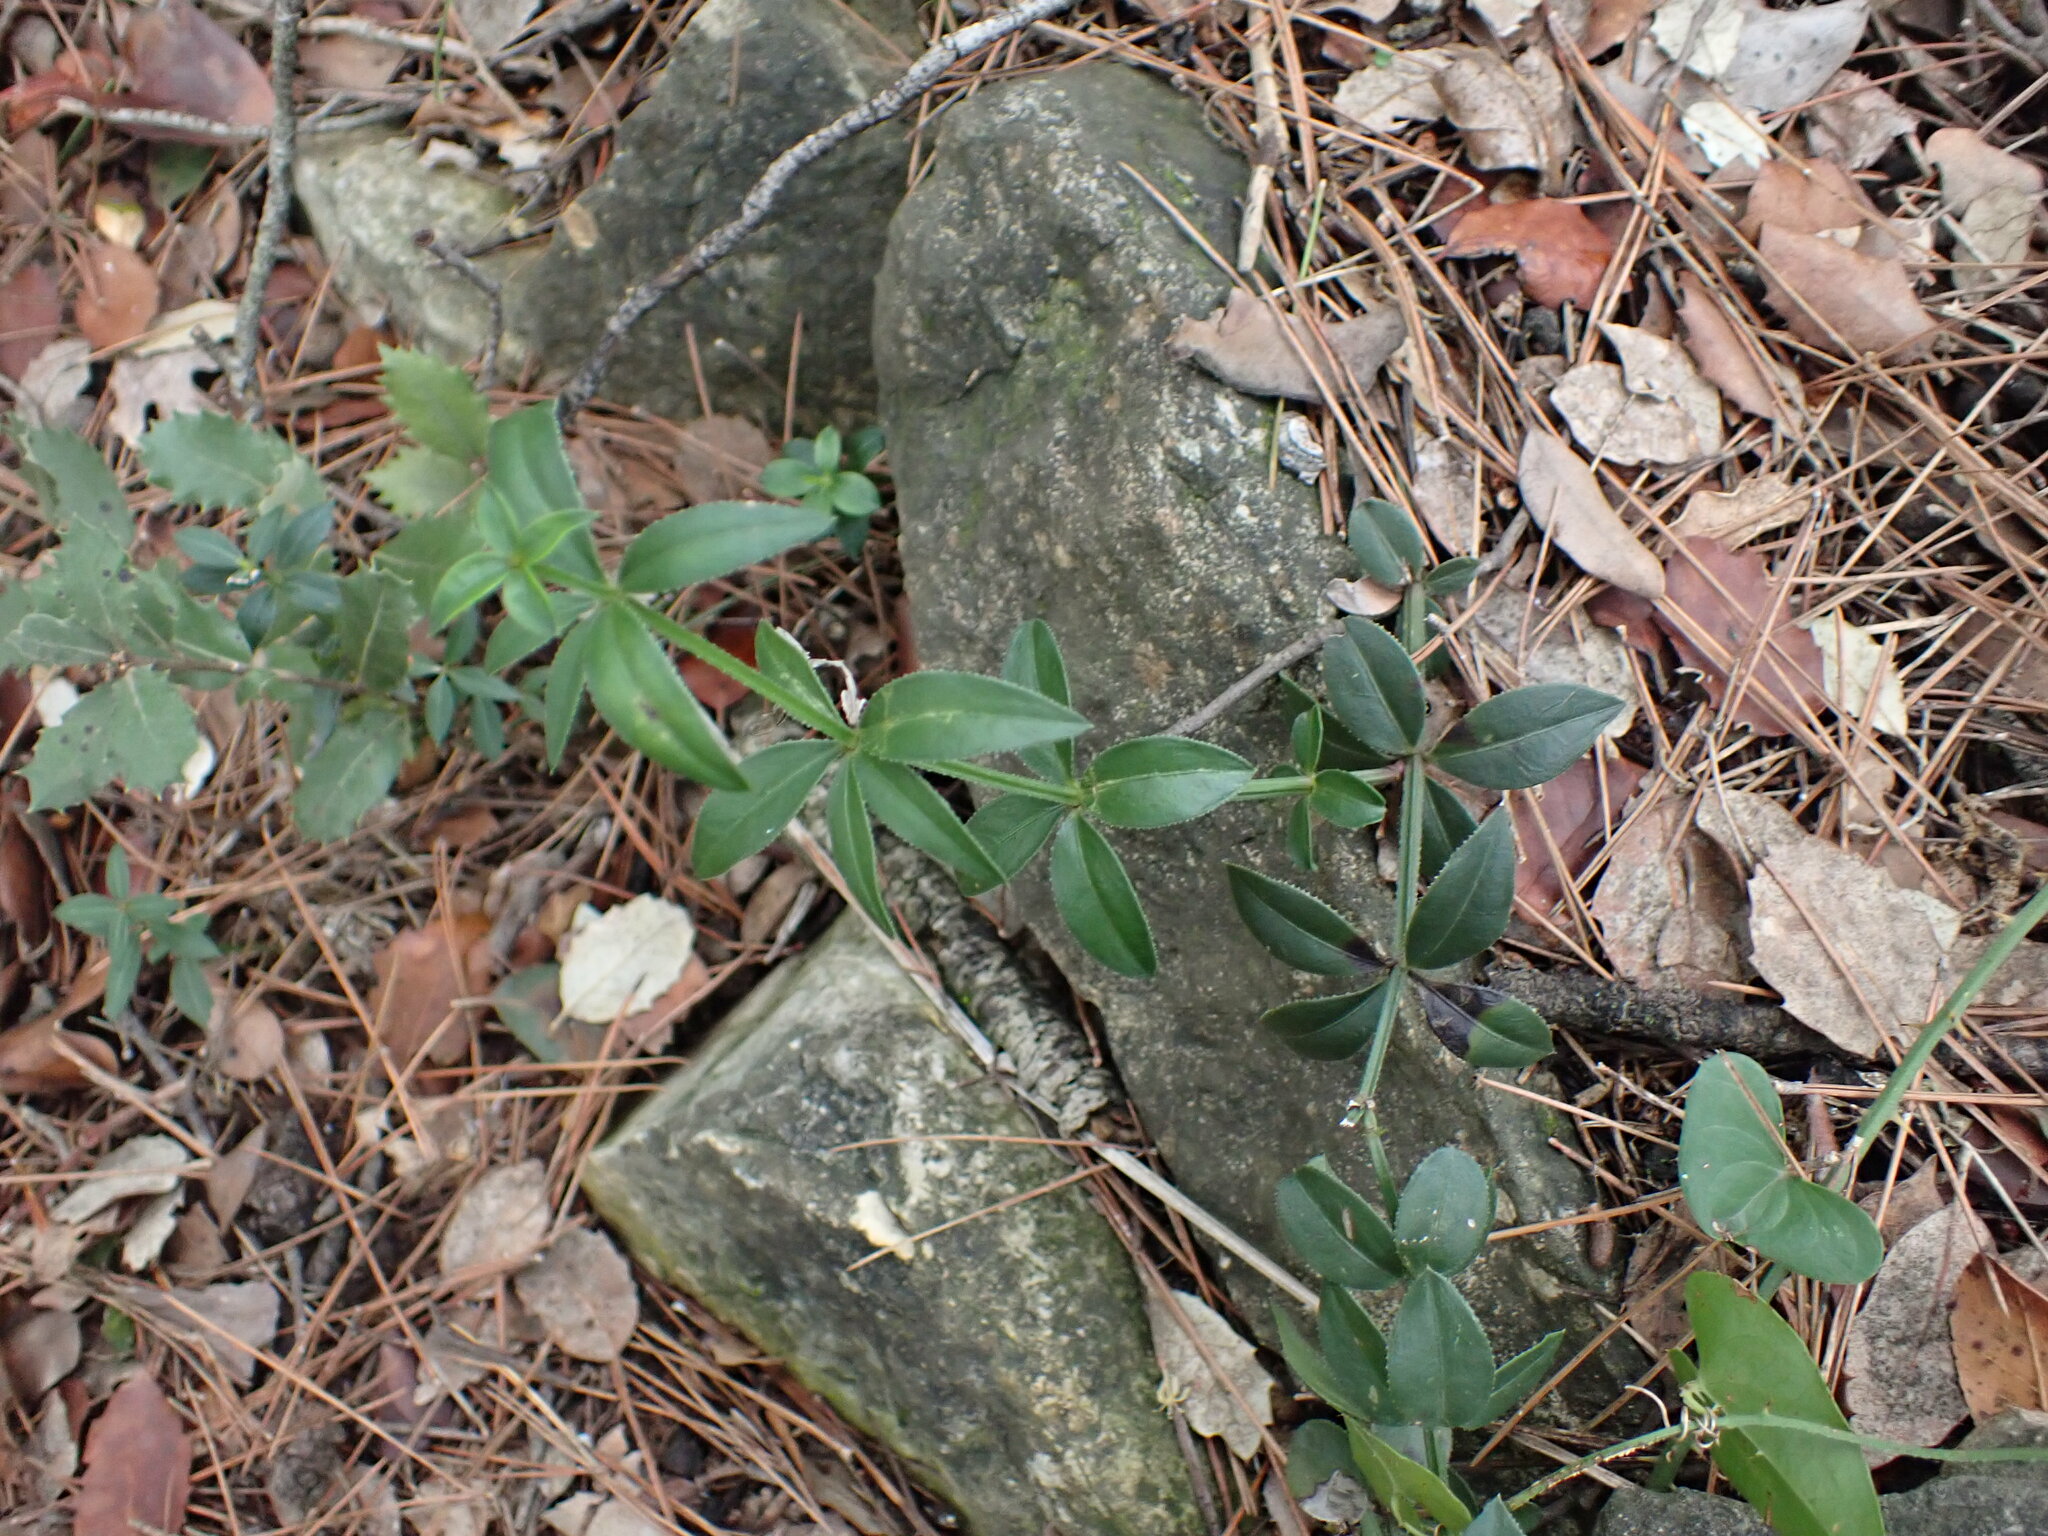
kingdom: Plantae
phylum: Tracheophyta
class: Magnoliopsida
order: Gentianales
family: Rubiaceae
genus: Rubia
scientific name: Rubia peregrina
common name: Wild madder
